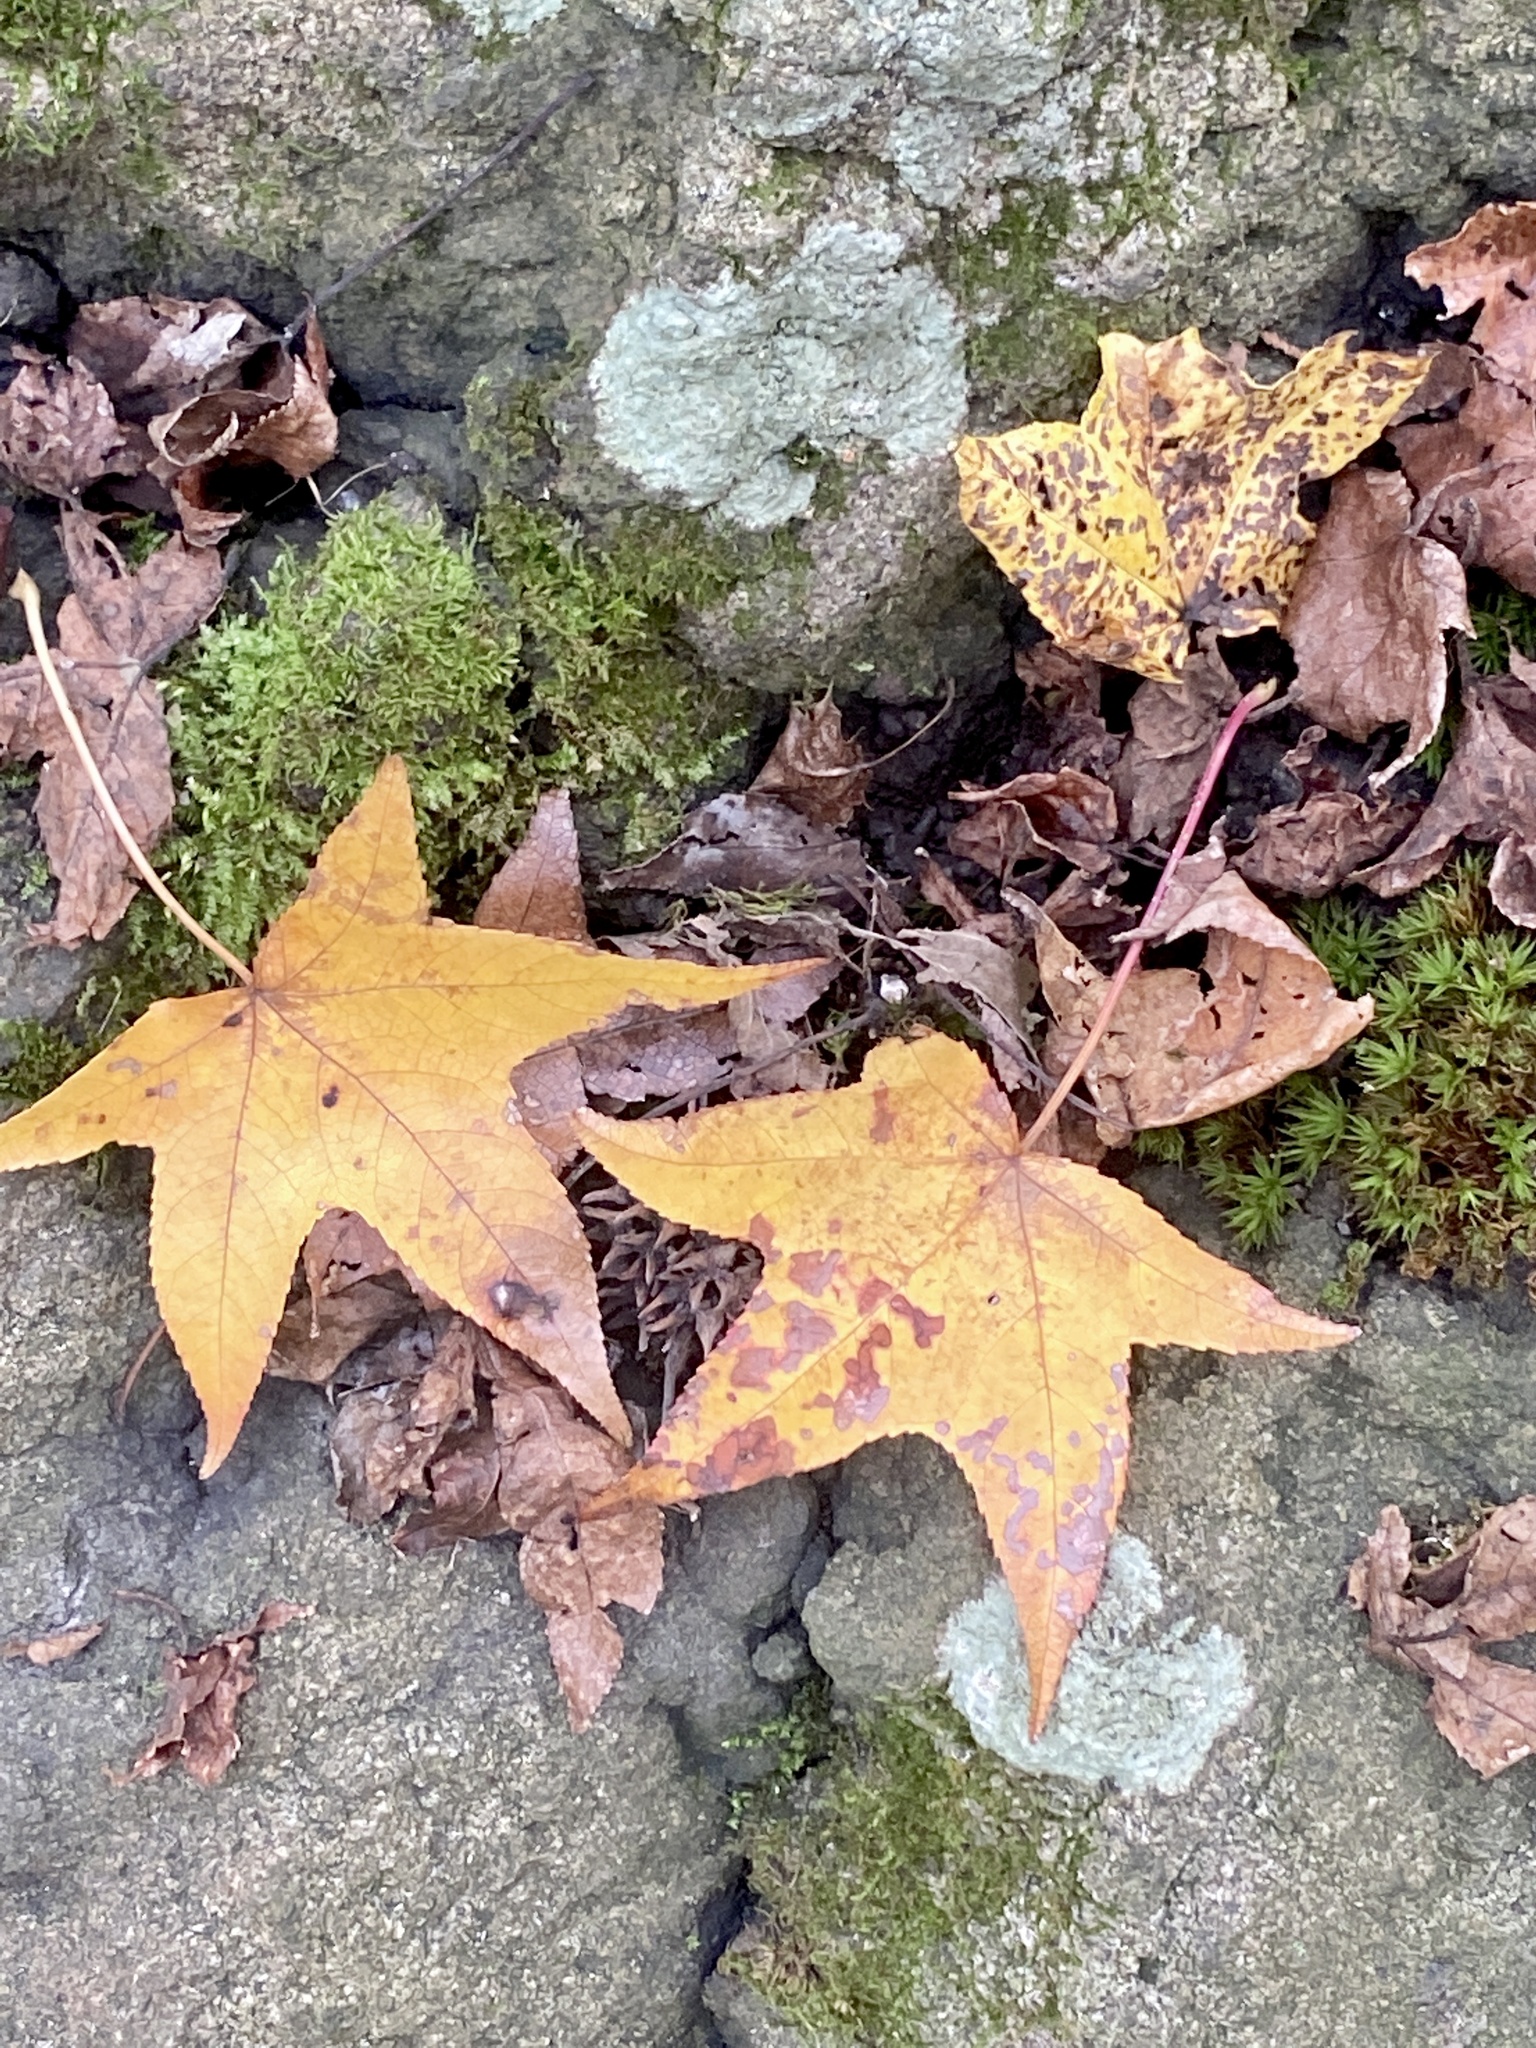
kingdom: Plantae
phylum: Tracheophyta
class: Magnoliopsida
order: Saxifragales
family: Altingiaceae
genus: Liquidambar
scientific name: Liquidambar styraciflua
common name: Sweet gum
